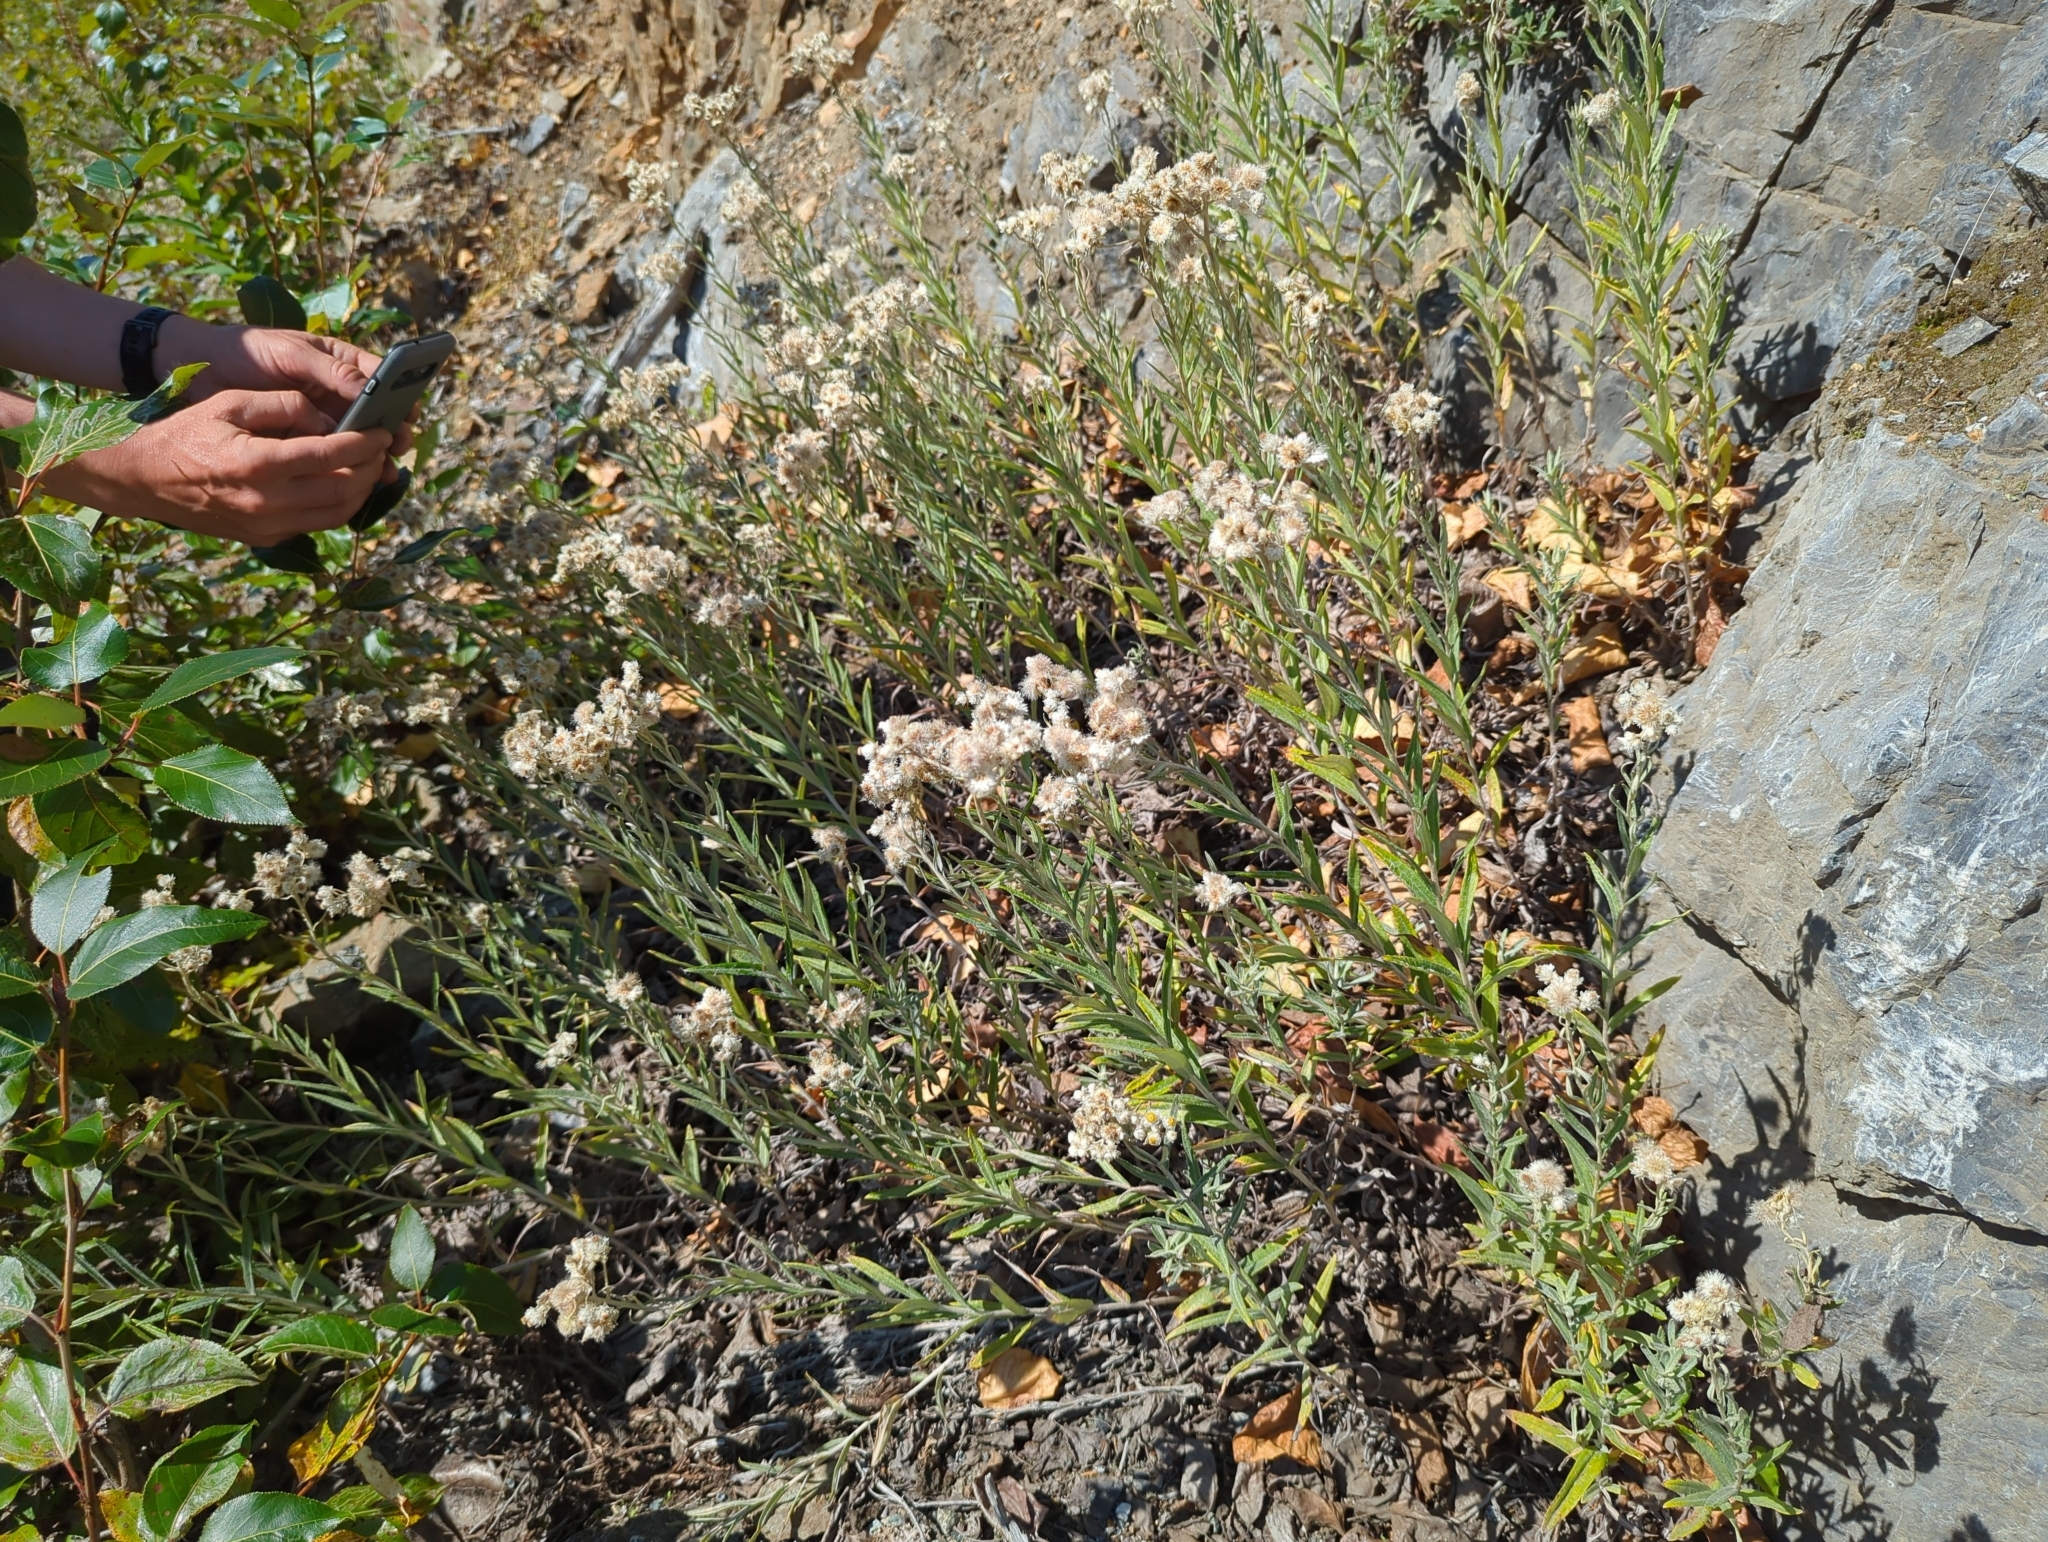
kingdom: Plantae
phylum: Tracheophyta
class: Magnoliopsida
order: Asterales
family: Asteraceae
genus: Anaphalis
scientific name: Anaphalis margaritacea
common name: Pearly everlasting
